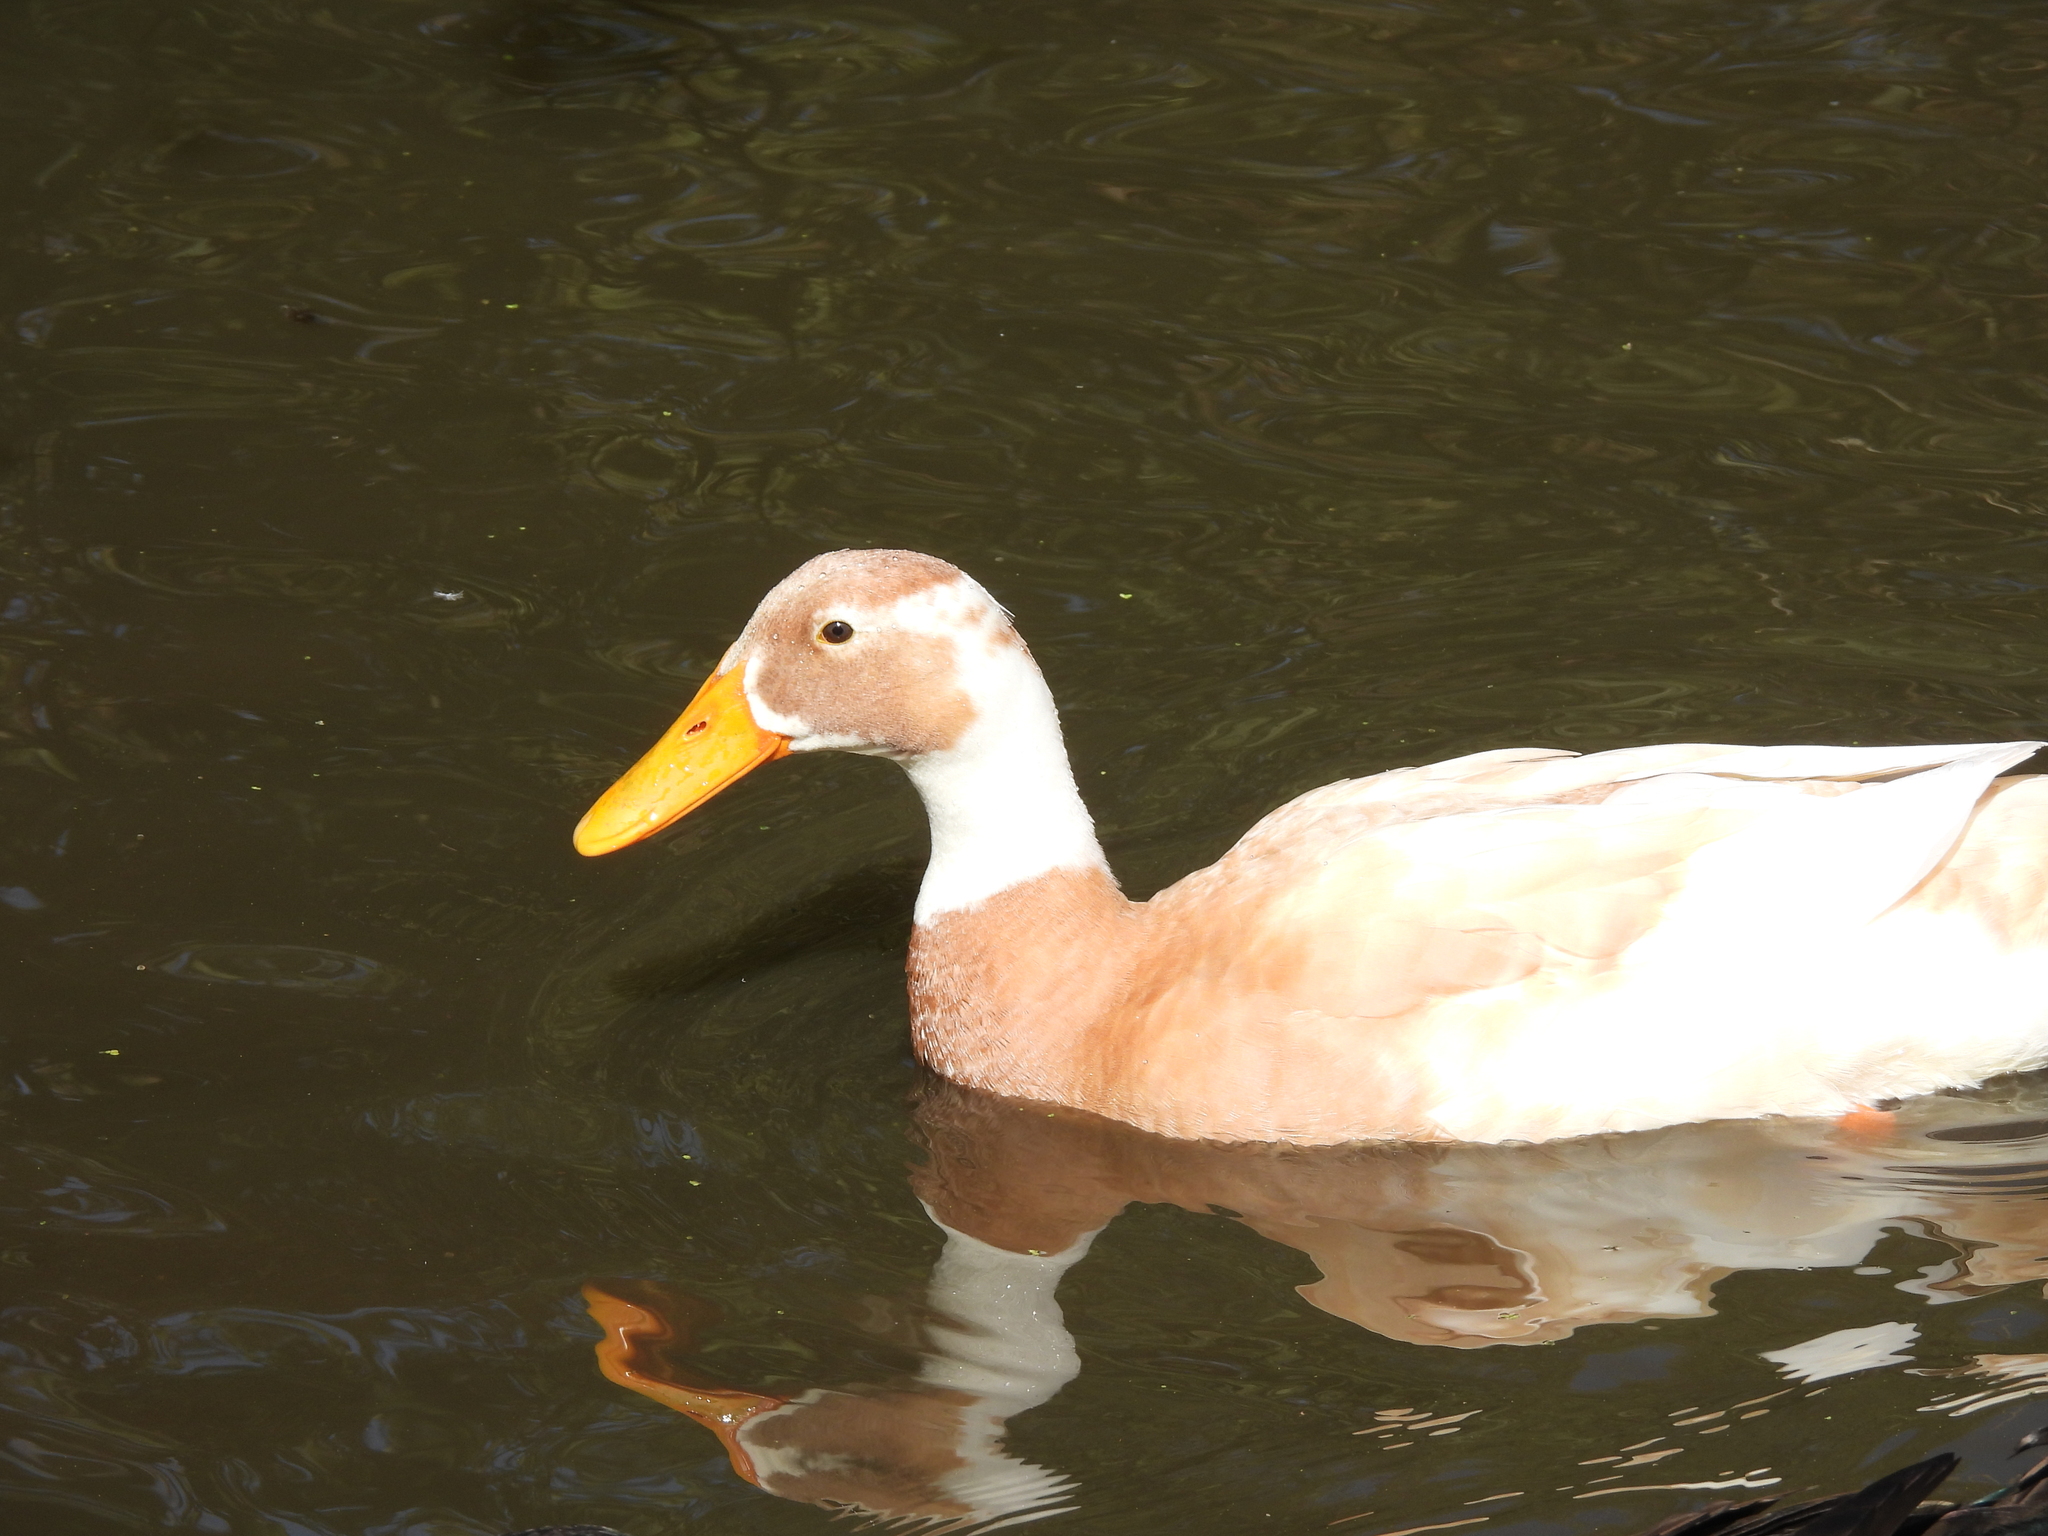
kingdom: Animalia
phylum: Chordata
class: Aves
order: Anseriformes
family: Anatidae
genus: Anas
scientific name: Anas platyrhynchos
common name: Mallard
